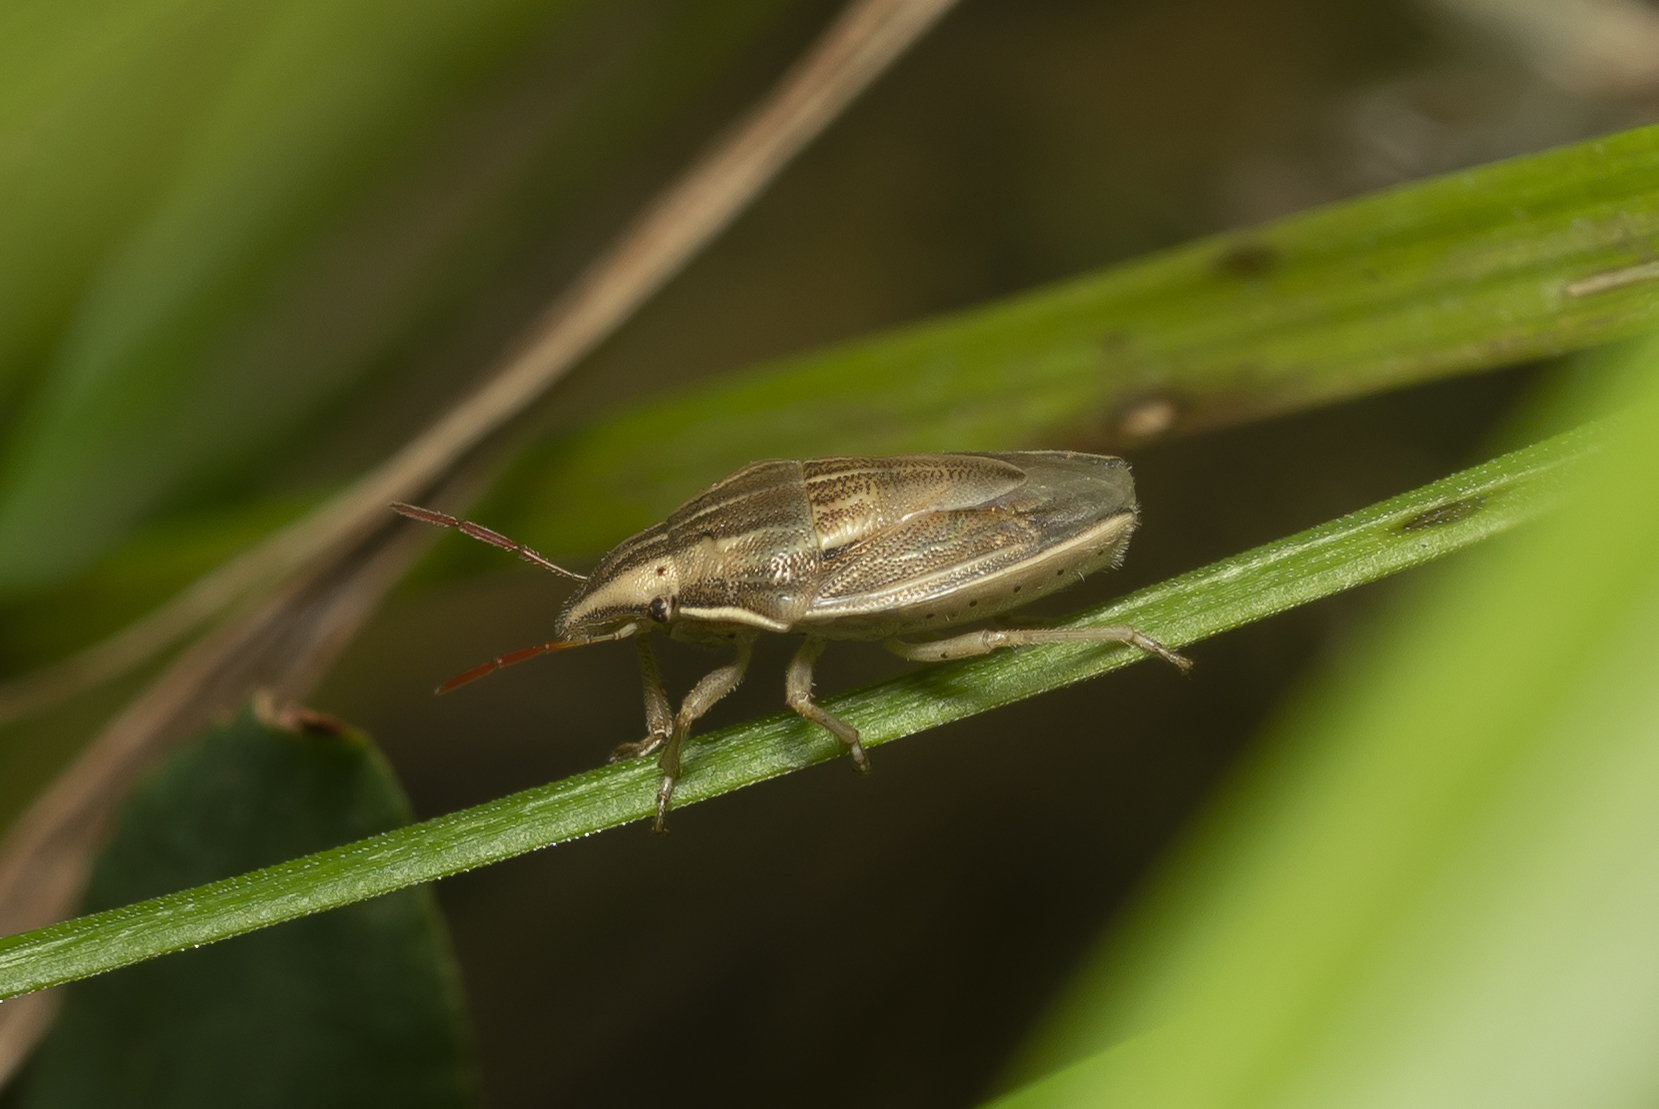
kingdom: Animalia
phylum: Arthropoda
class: Insecta
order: Hemiptera
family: Scutelleridae
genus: Eurygaster
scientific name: Eurygaster integriceps
